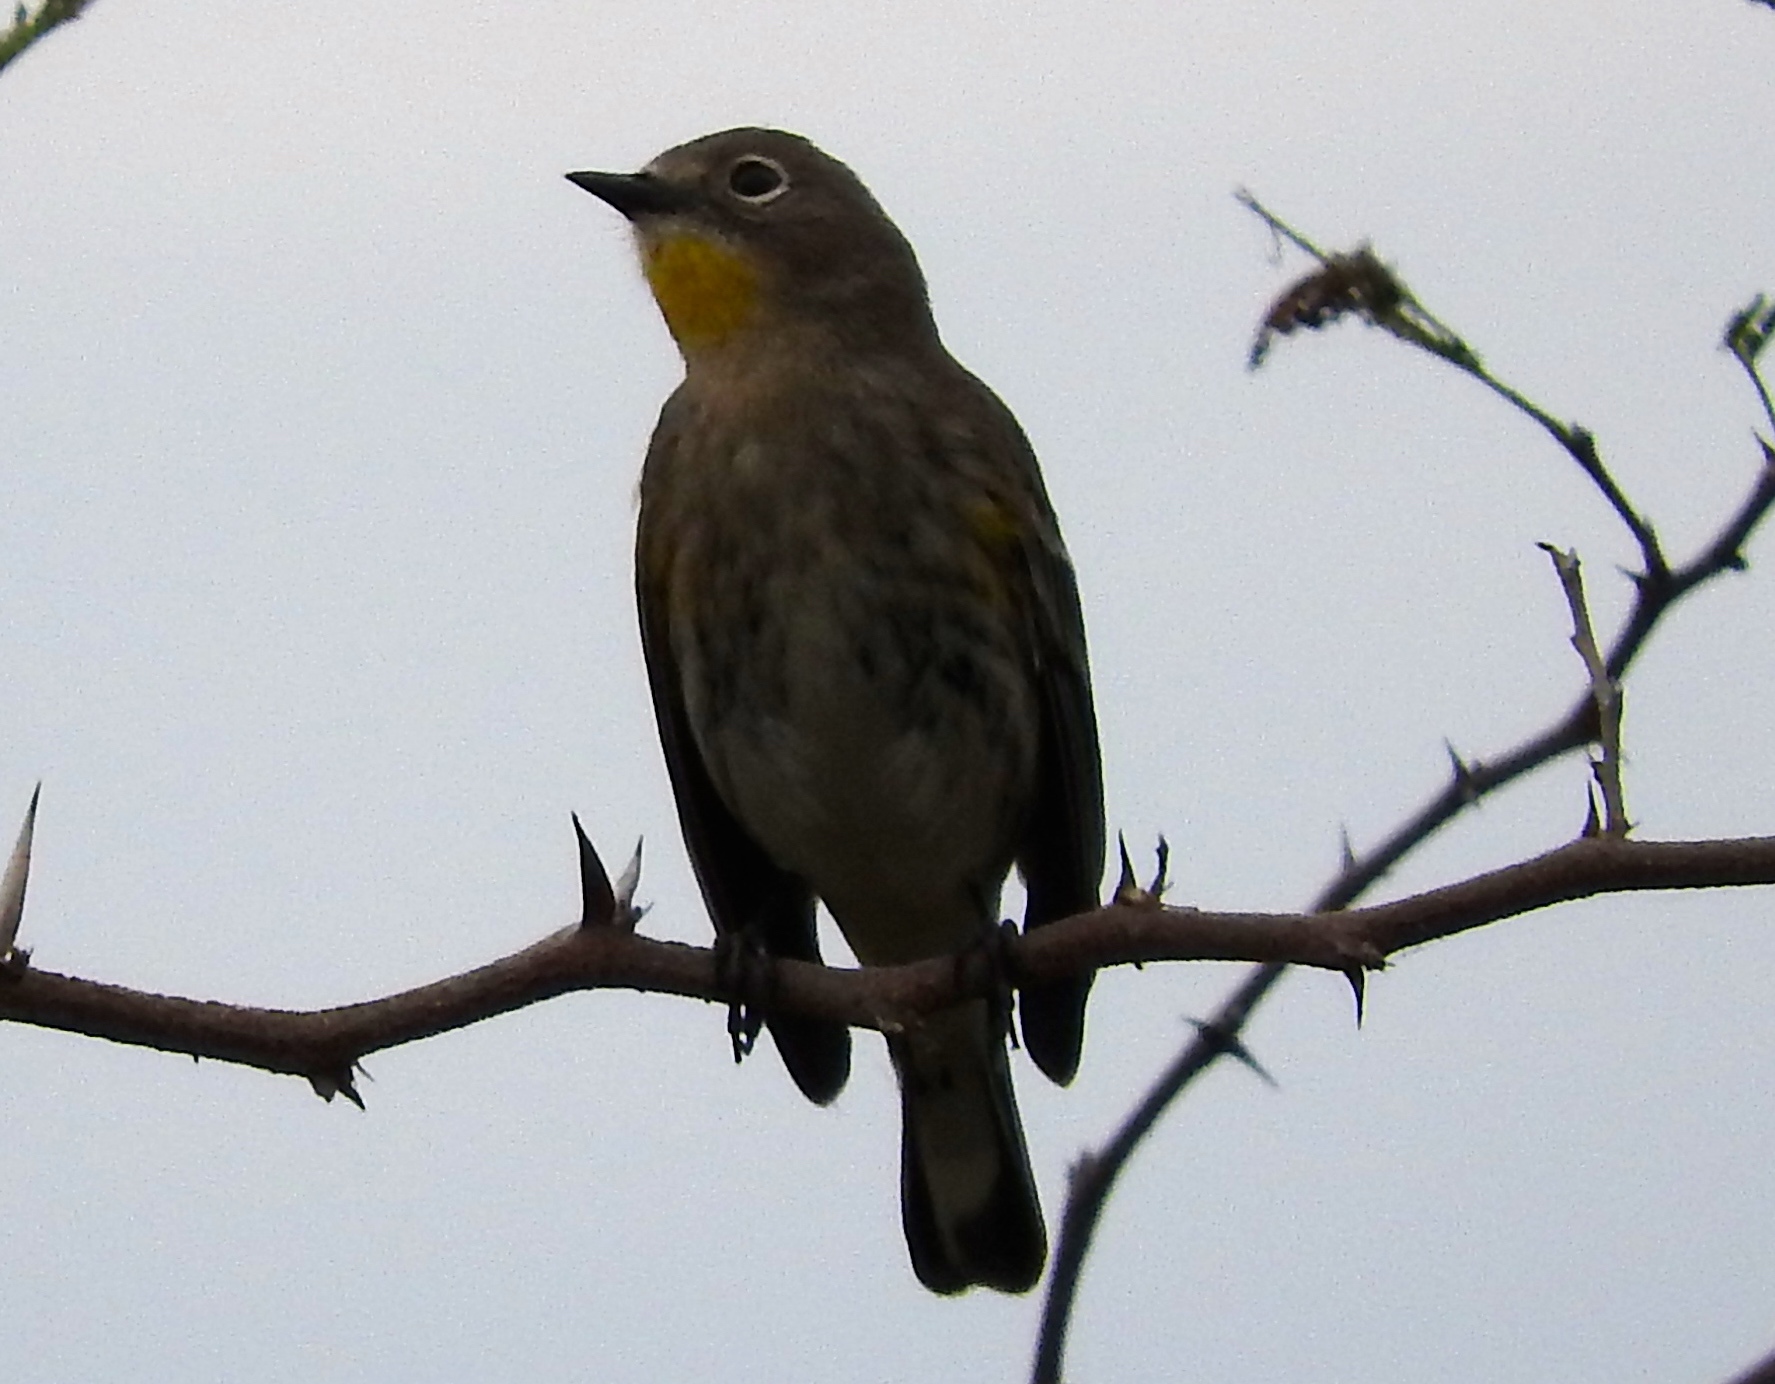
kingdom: Animalia
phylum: Chordata
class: Aves
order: Passeriformes
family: Parulidae
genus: Setophaga
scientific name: Setophaga auduboni
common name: Audubon's warbler
